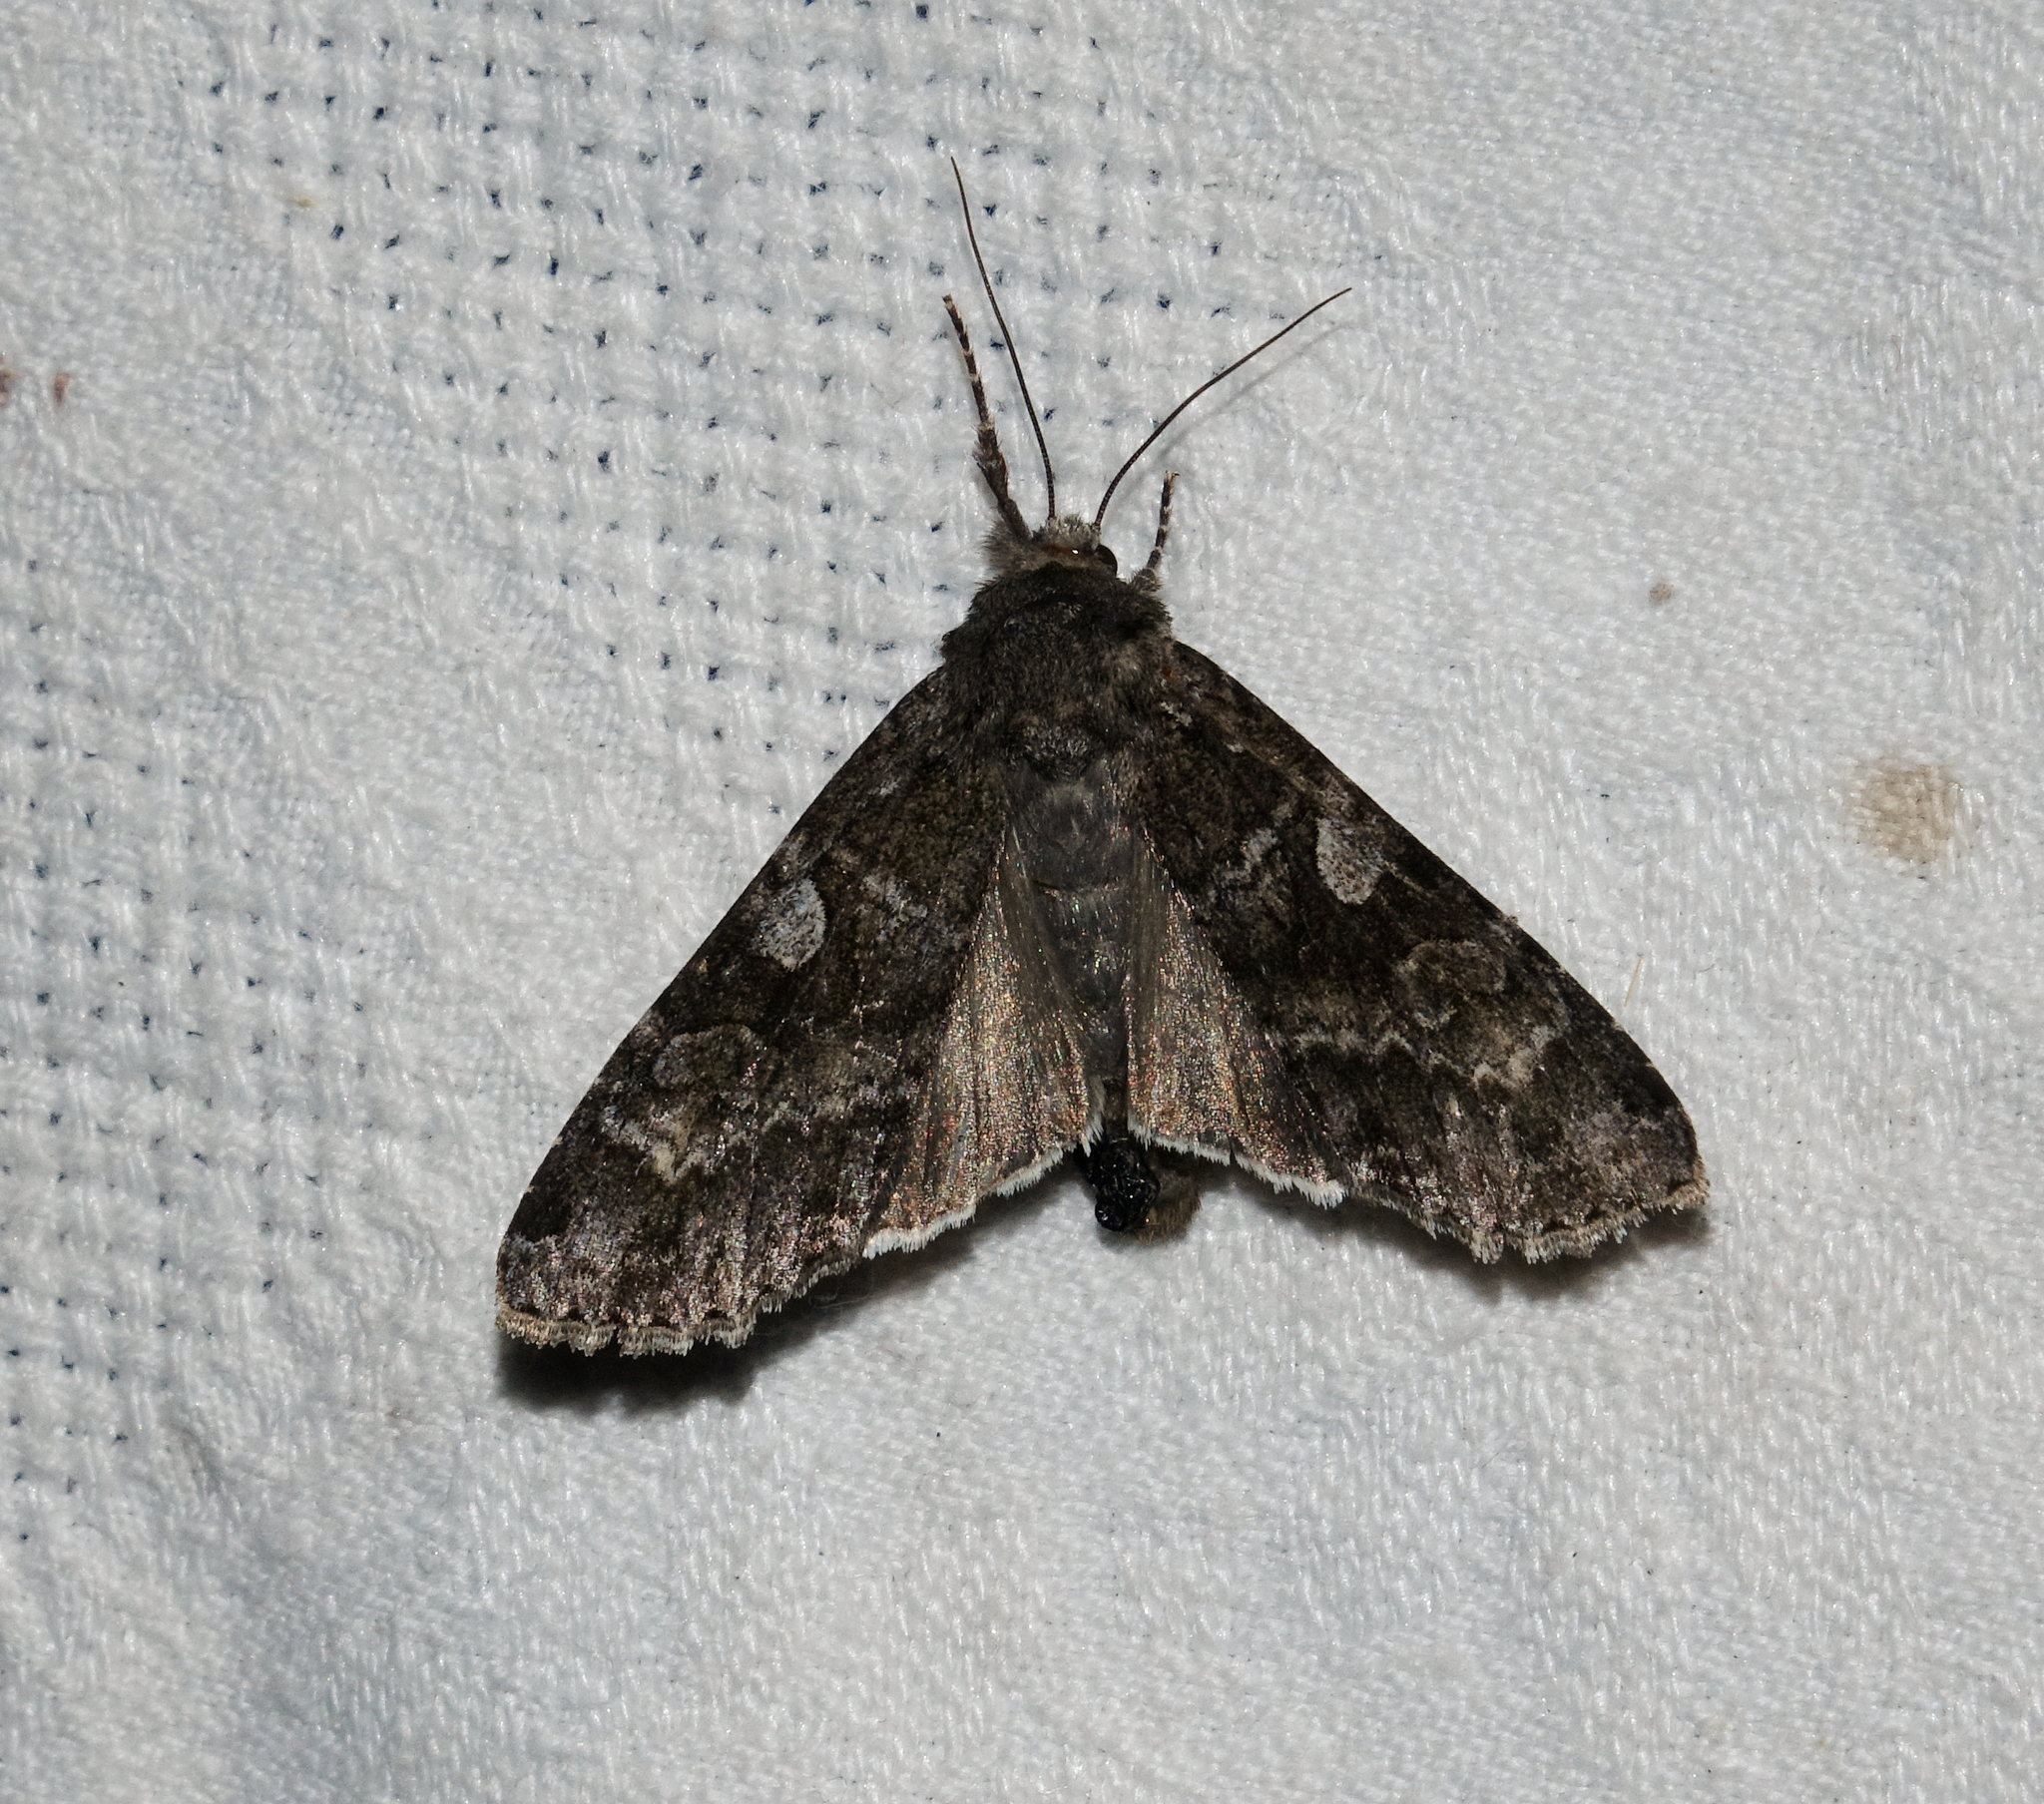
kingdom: Animalia
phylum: Arthropoda
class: Insecta
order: Lepidoptera
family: Noctuidae
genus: Eurois
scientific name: Eurois occulta
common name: Great brocade
